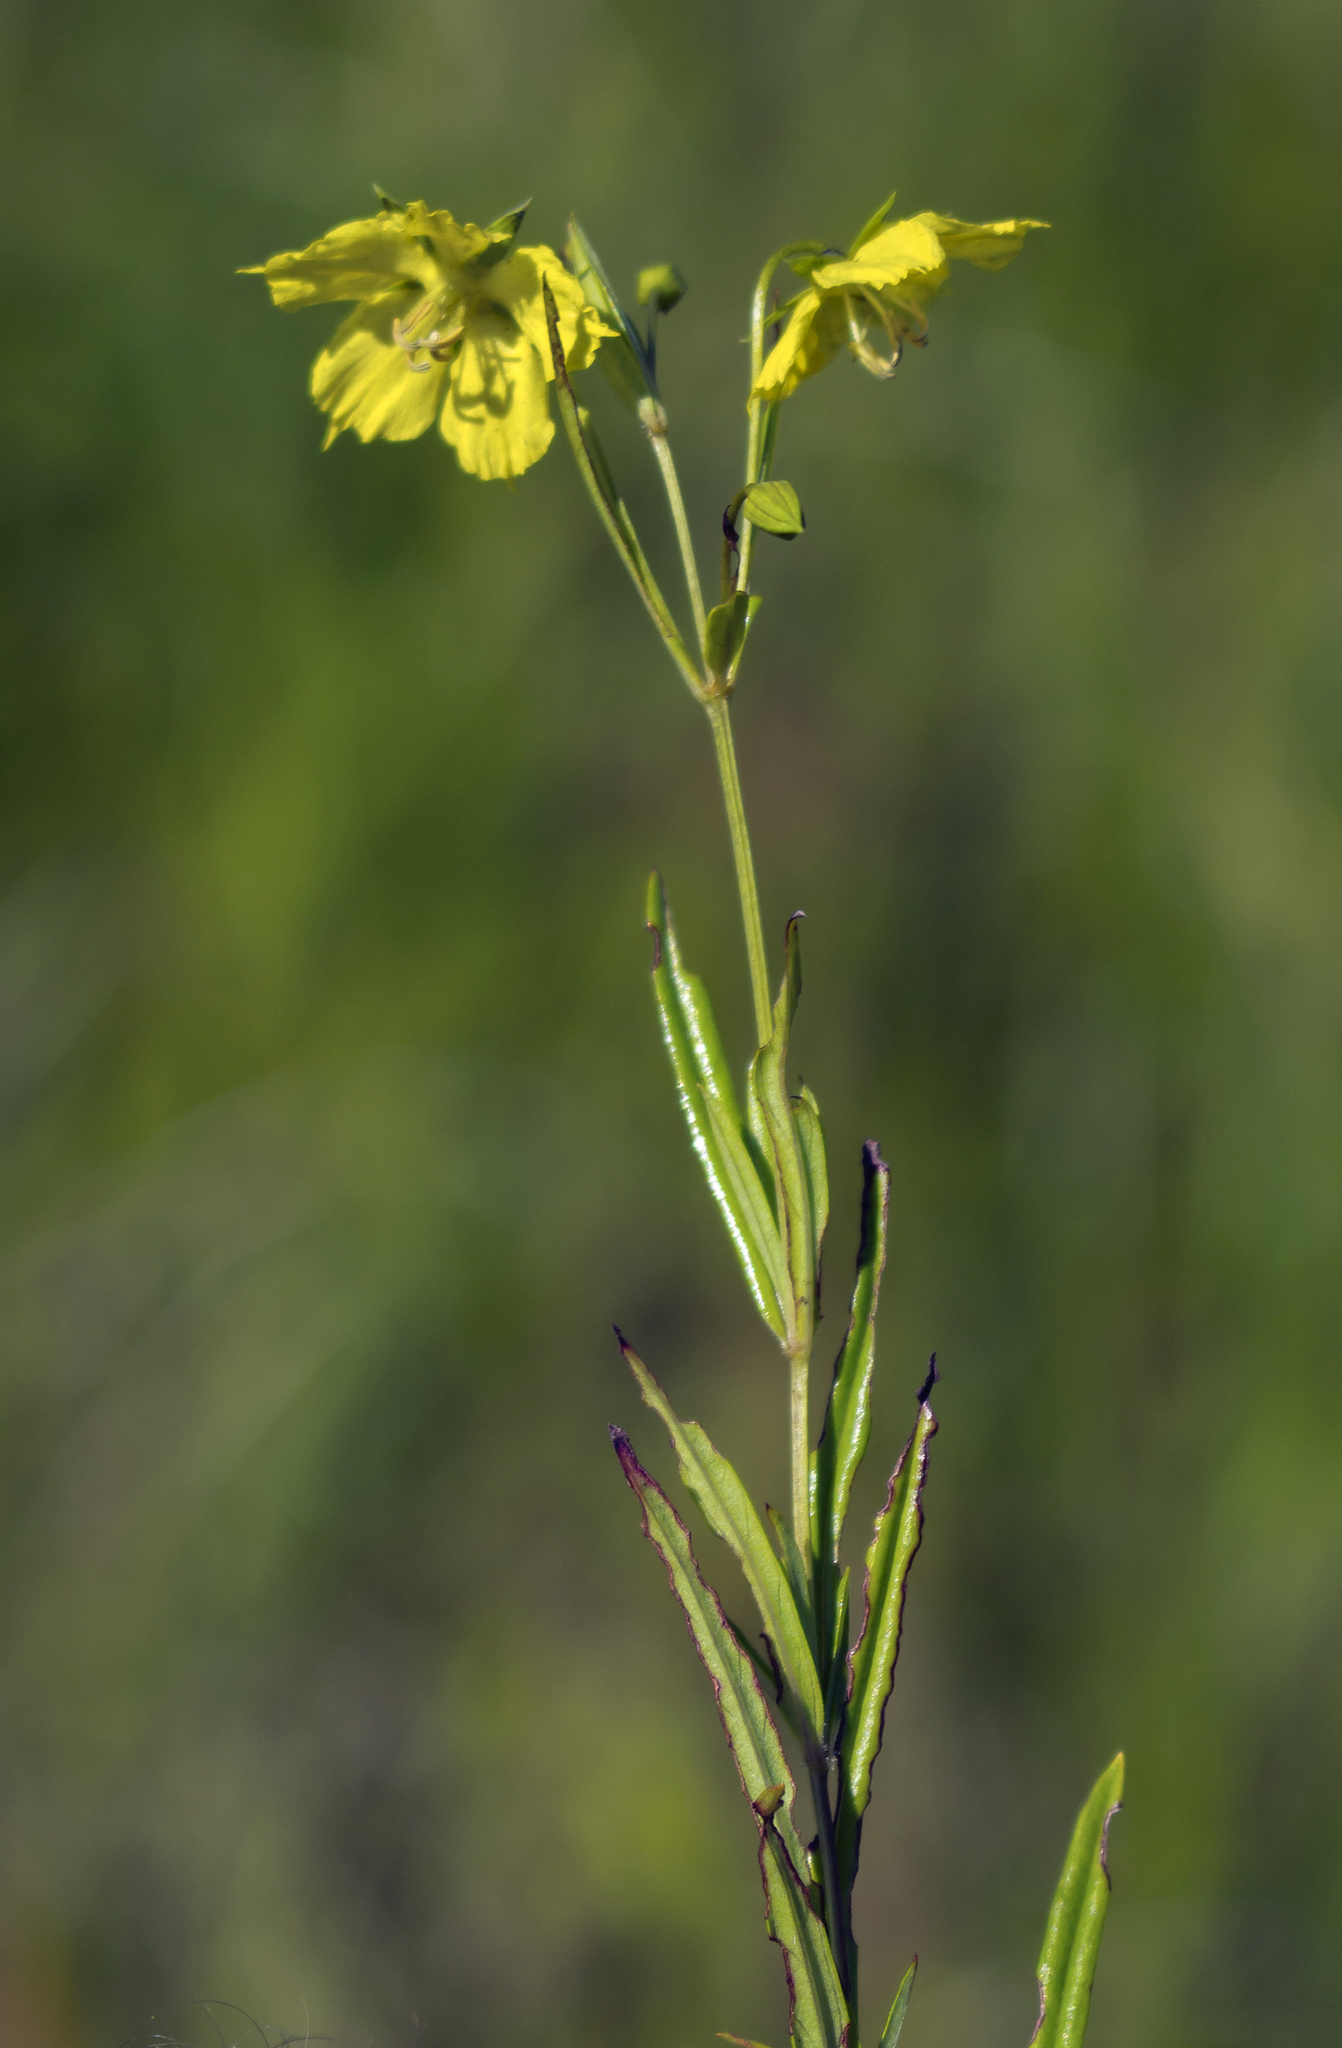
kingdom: Plantae
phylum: Tracheophyta
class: Magnoliopsida
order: Ericales
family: Primulaceae
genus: Lysimachia
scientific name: Lysimachia quadriflora
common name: Four-flowered loosestrife
